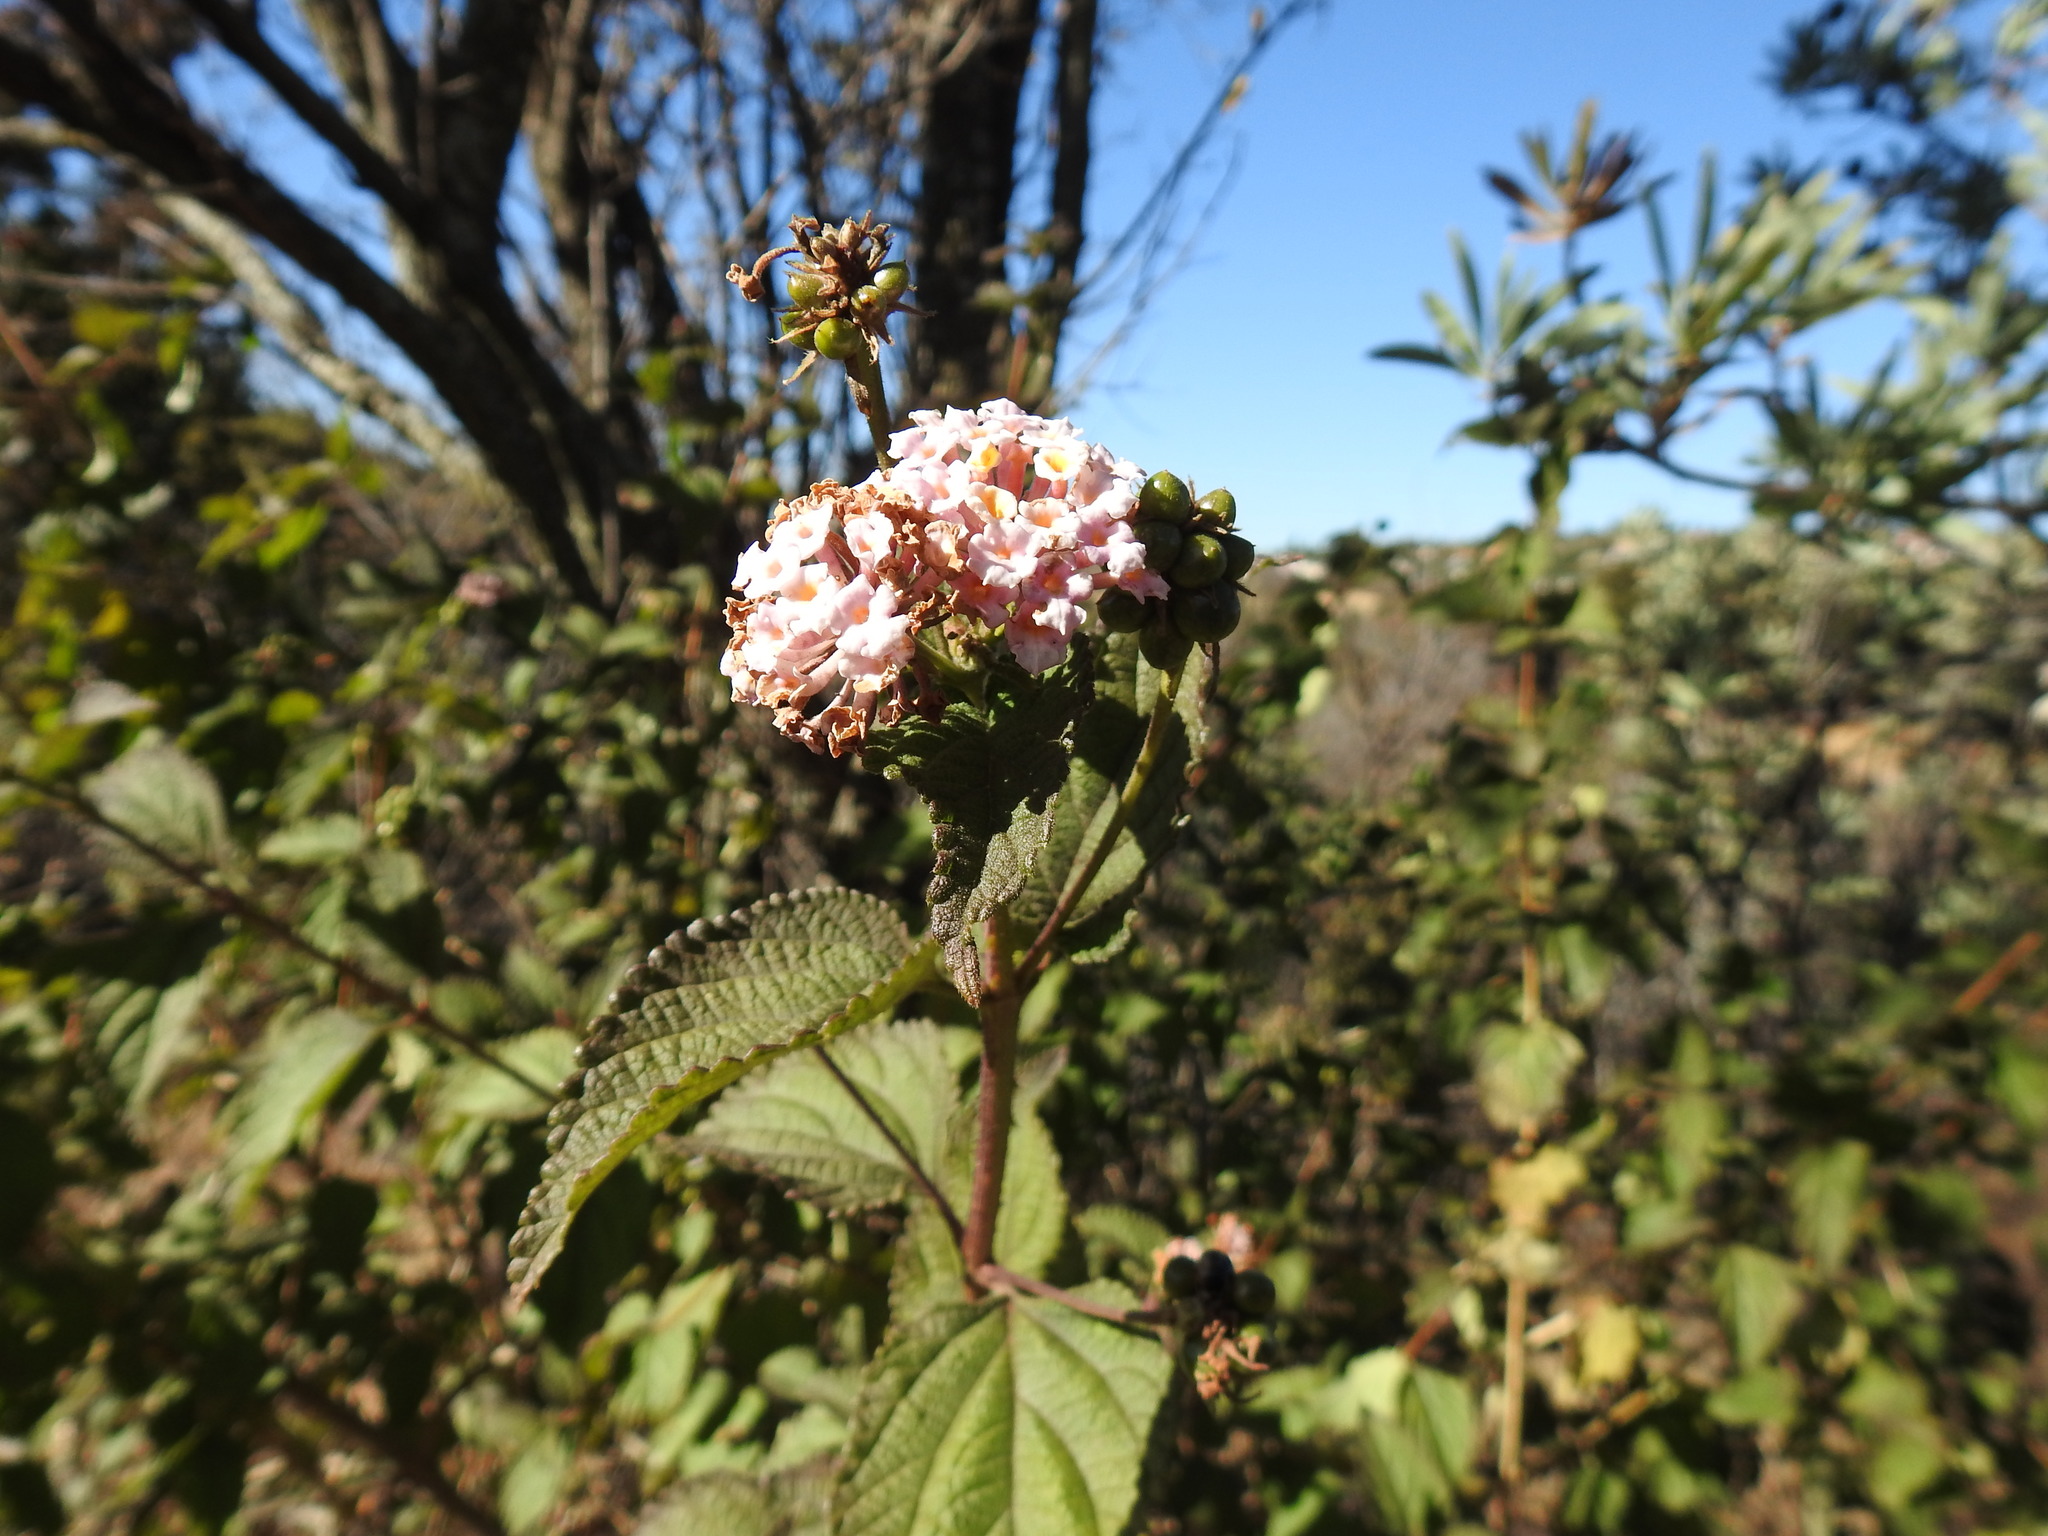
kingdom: Plantae
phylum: Tracheophyta
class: Magnoliopsida
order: Lamiales
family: Verbenaceae
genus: Lantana
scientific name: Lantana camara
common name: Lantana
